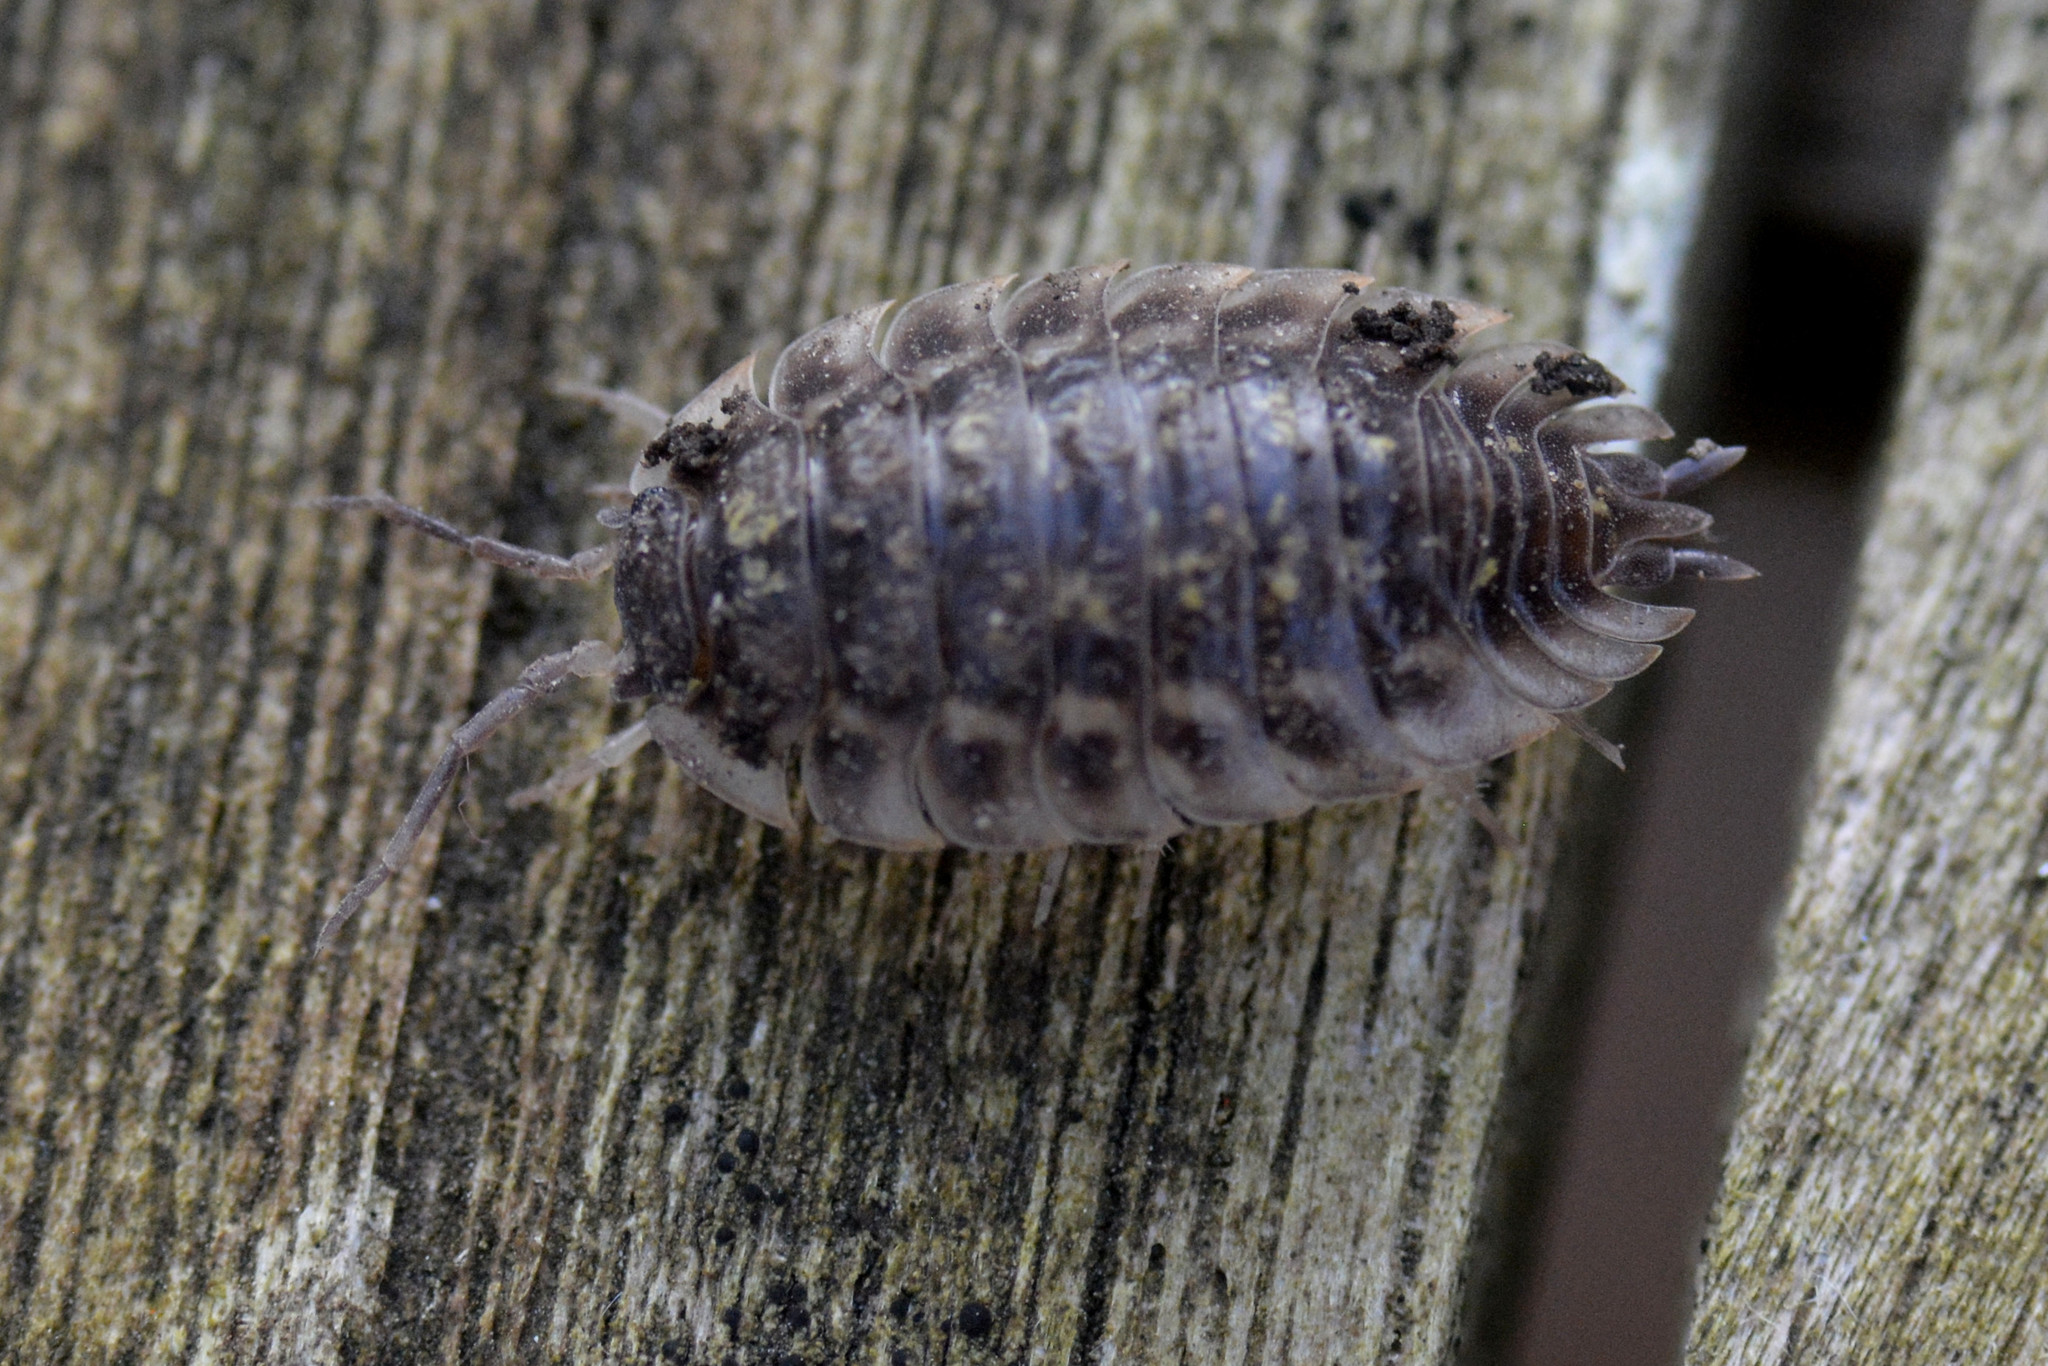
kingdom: Animalia
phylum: Arthropoda
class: Malacostraca
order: Isopoda
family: Oniscidae
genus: Oniscus
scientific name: Oniscus asellus
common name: Common shiny woodlouse
